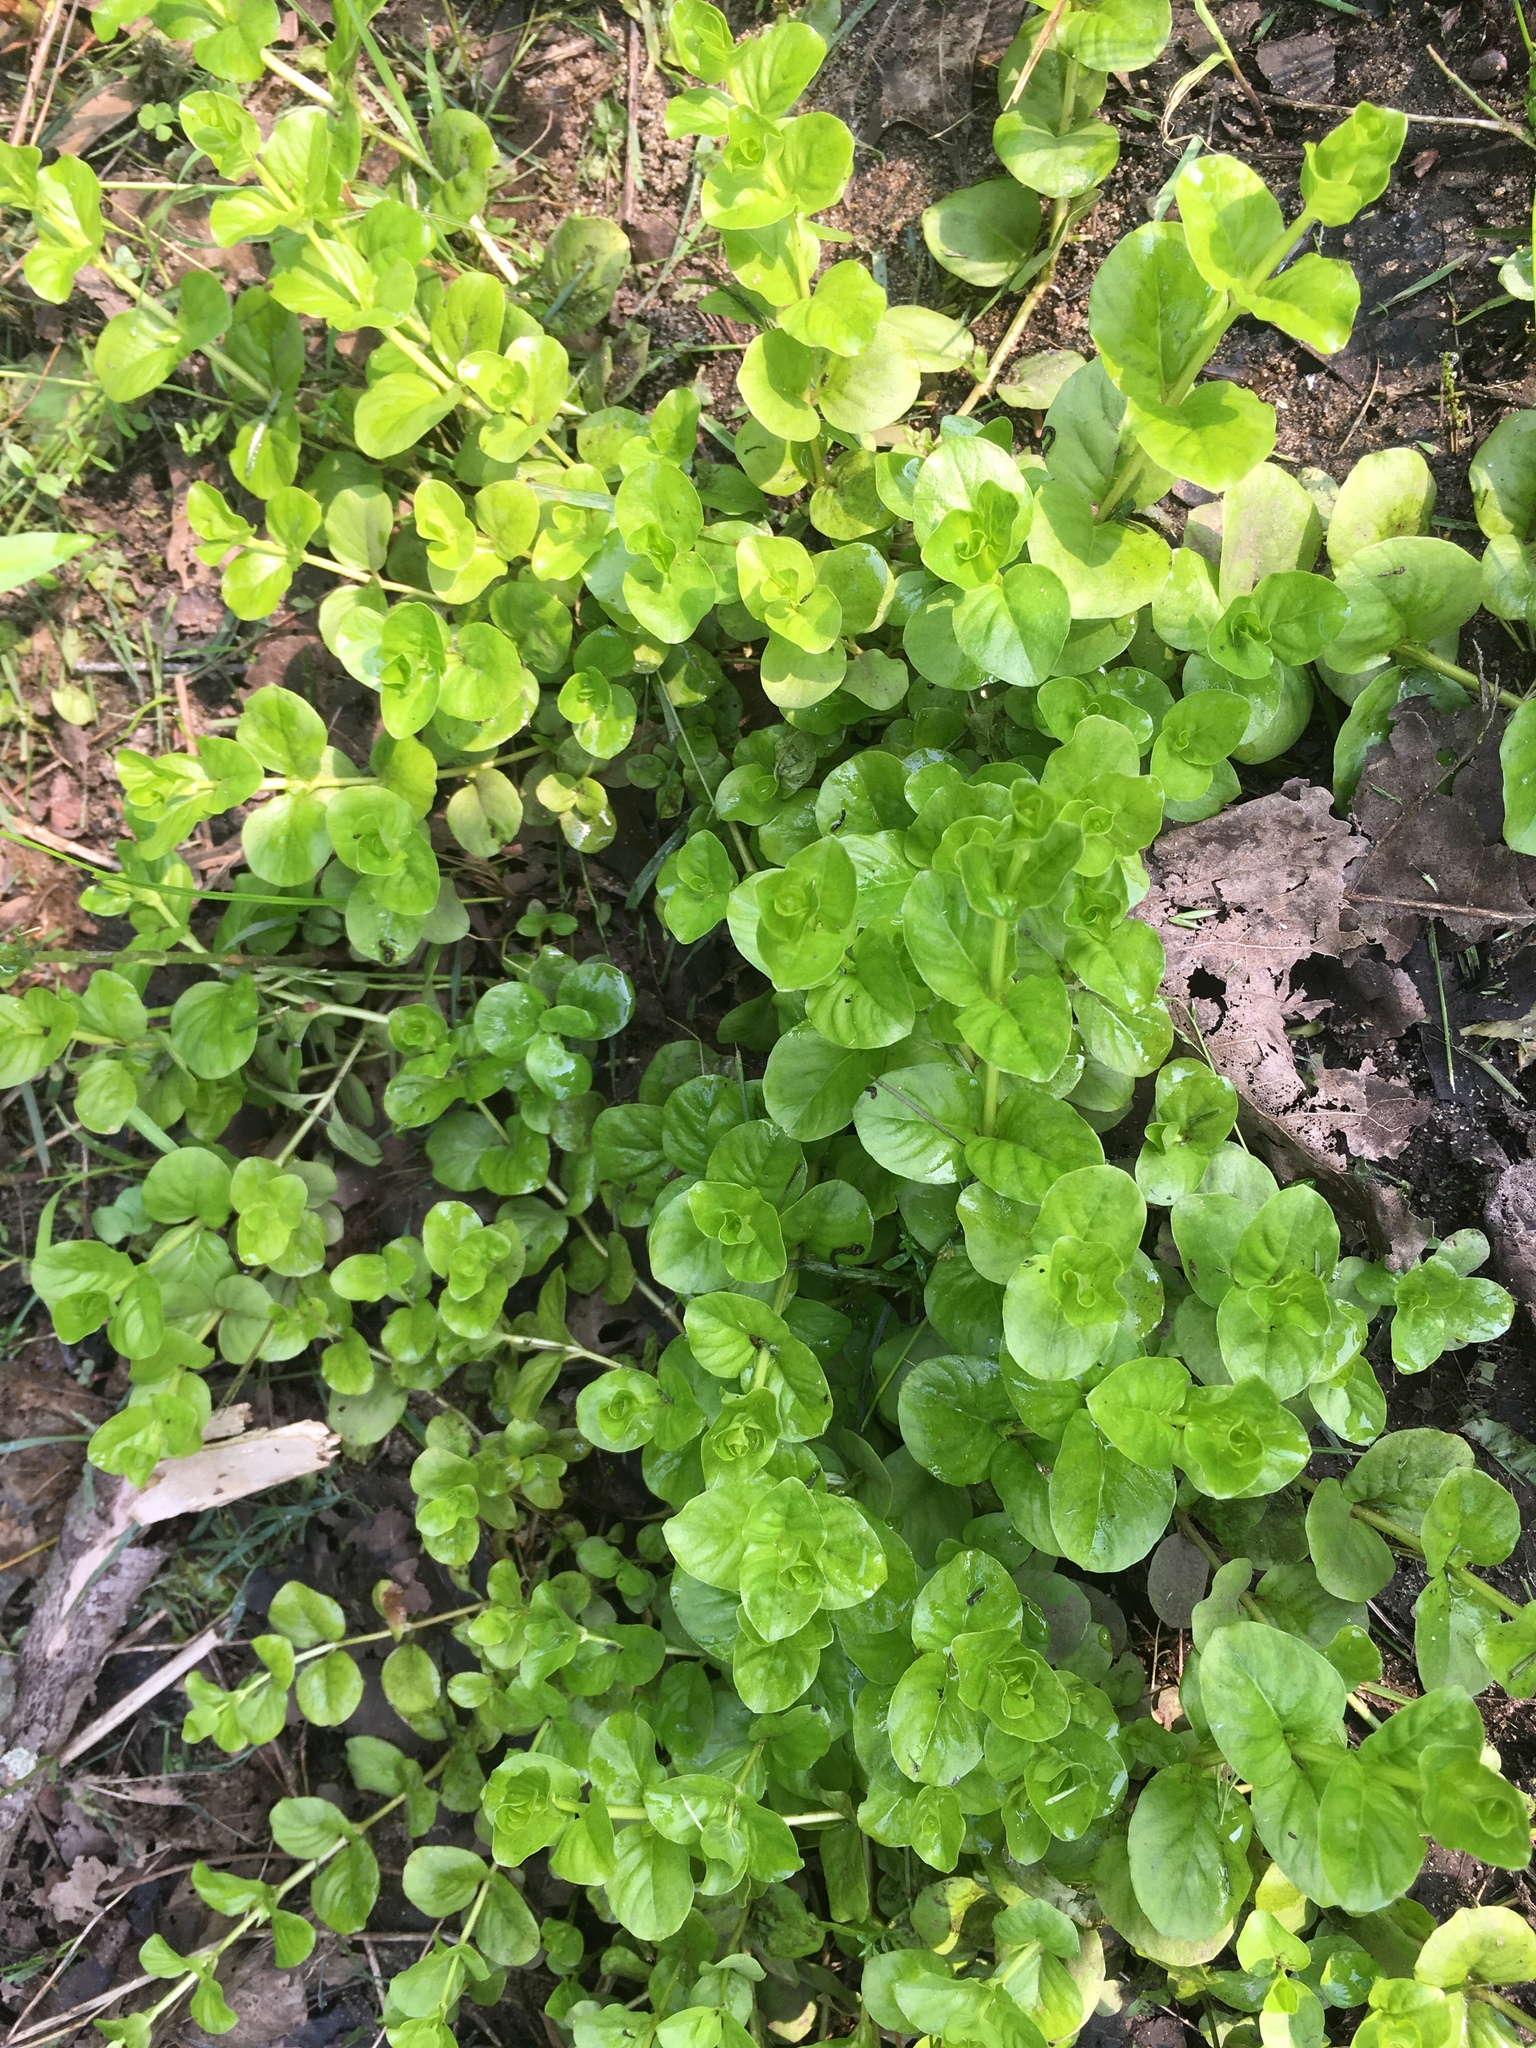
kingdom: Plantae
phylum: Tracheophyta
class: Magnoliopsida
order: Ericales
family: Primulaceae
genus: Lysimachia
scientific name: Lysimachia nummularia
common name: Moneywort
